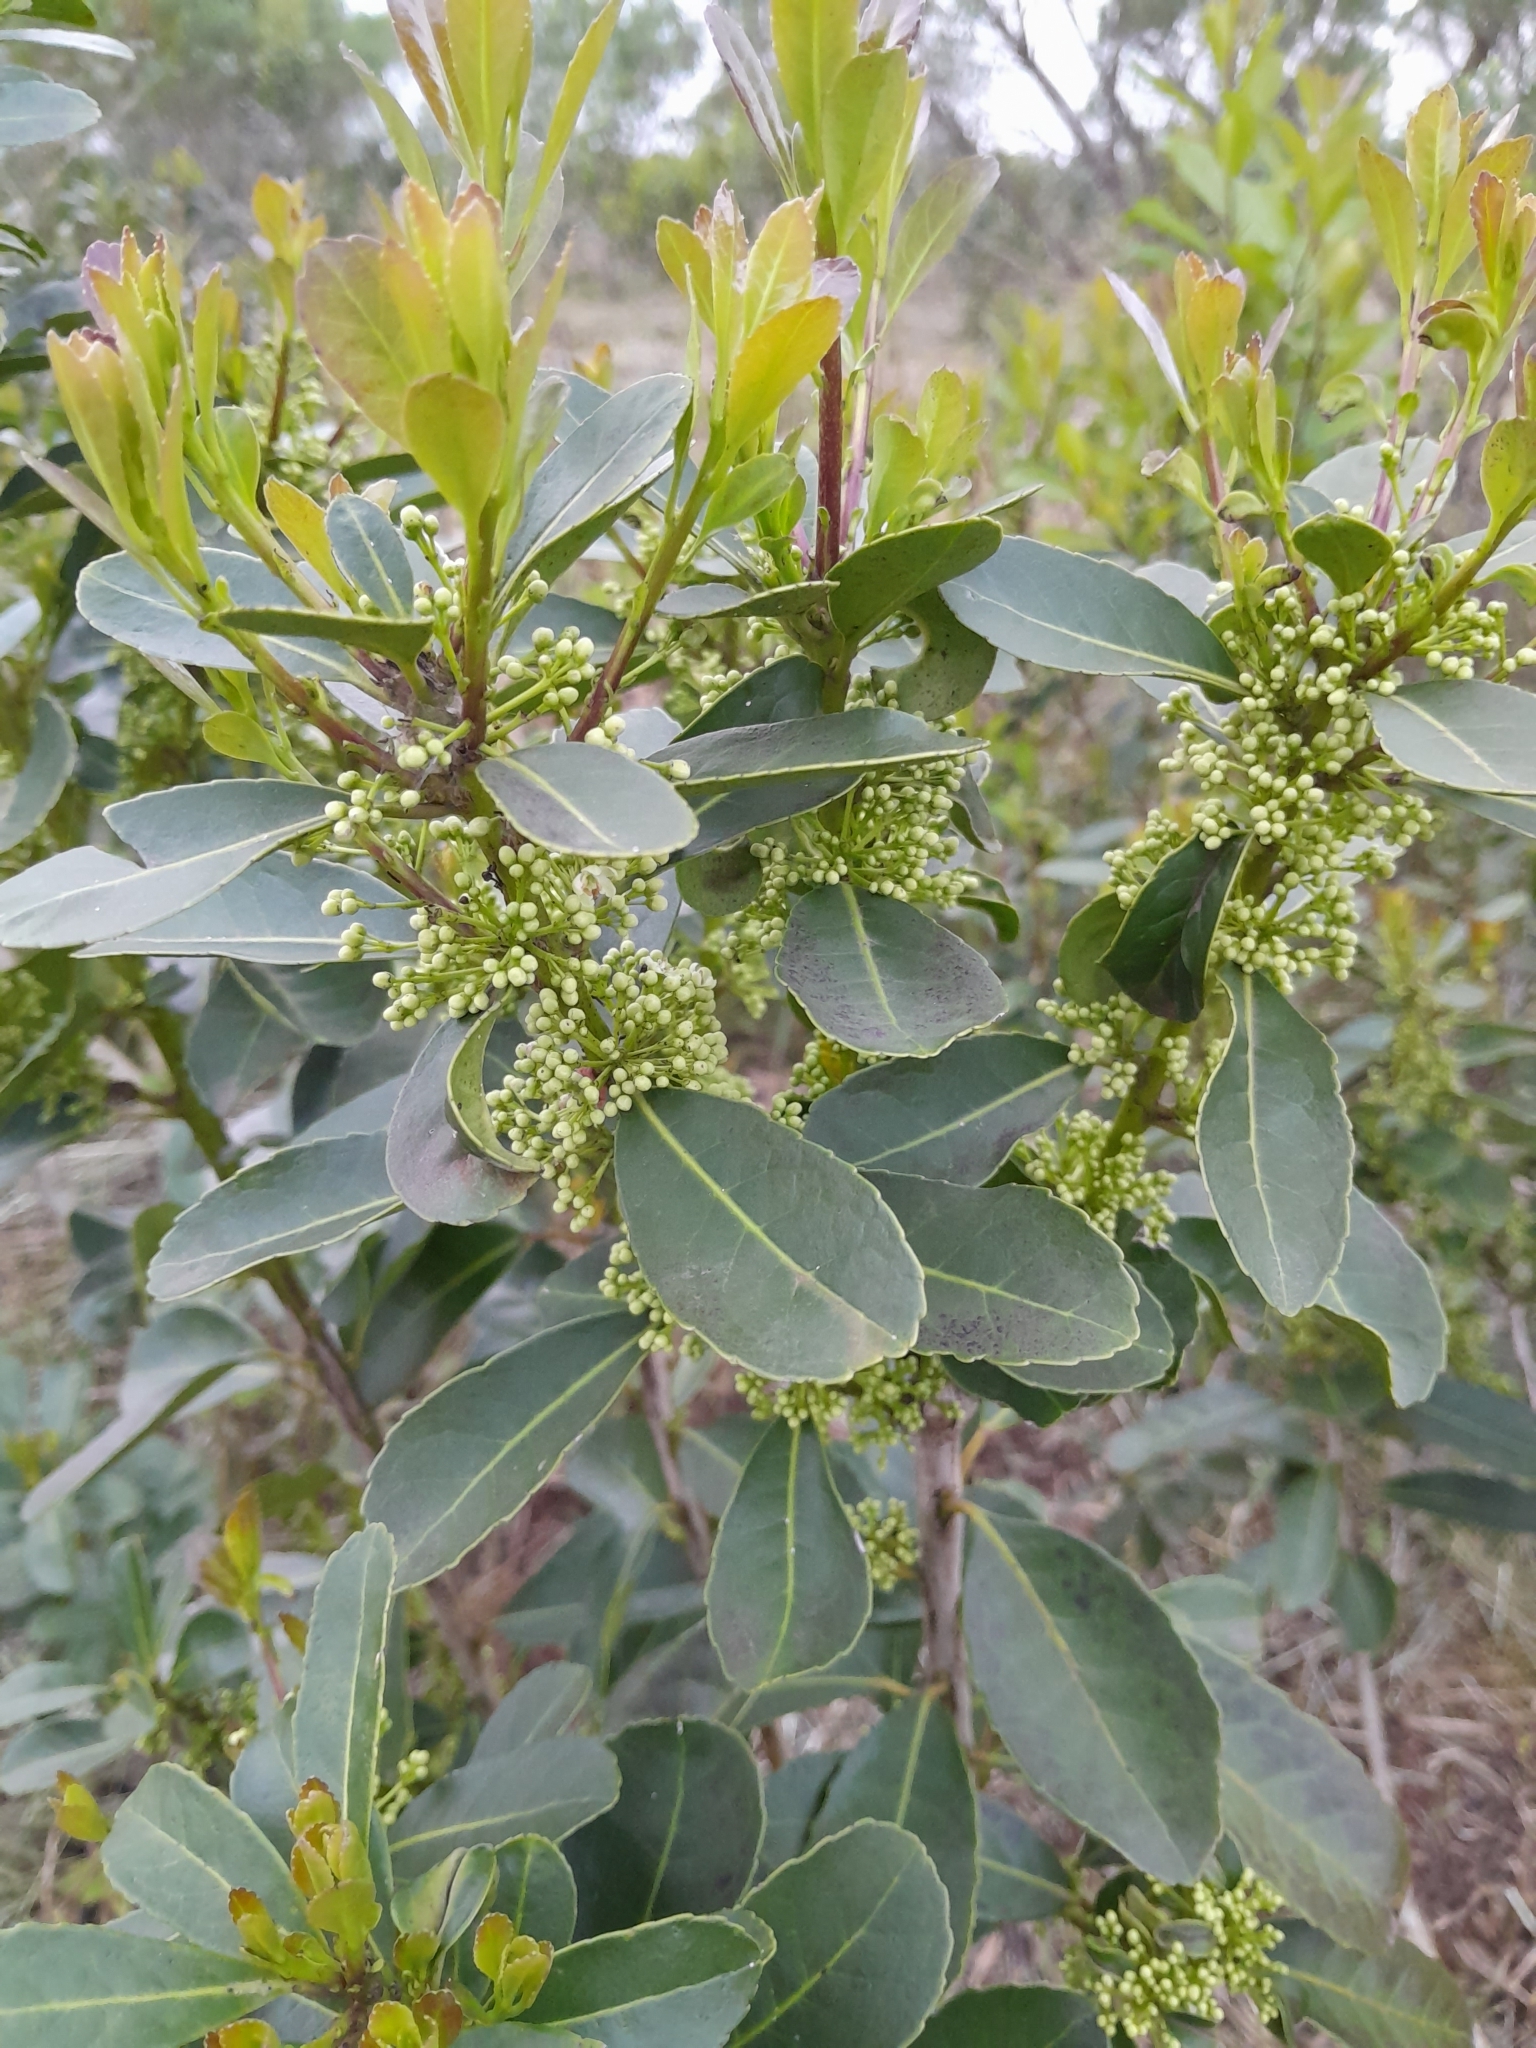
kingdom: Plantae
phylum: Tracheophyta
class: Magnoliopsida
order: Aquifoliales
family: Aquifoliaceae
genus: Ilex
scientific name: Ilex paraguariensis
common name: Paraguay tea
